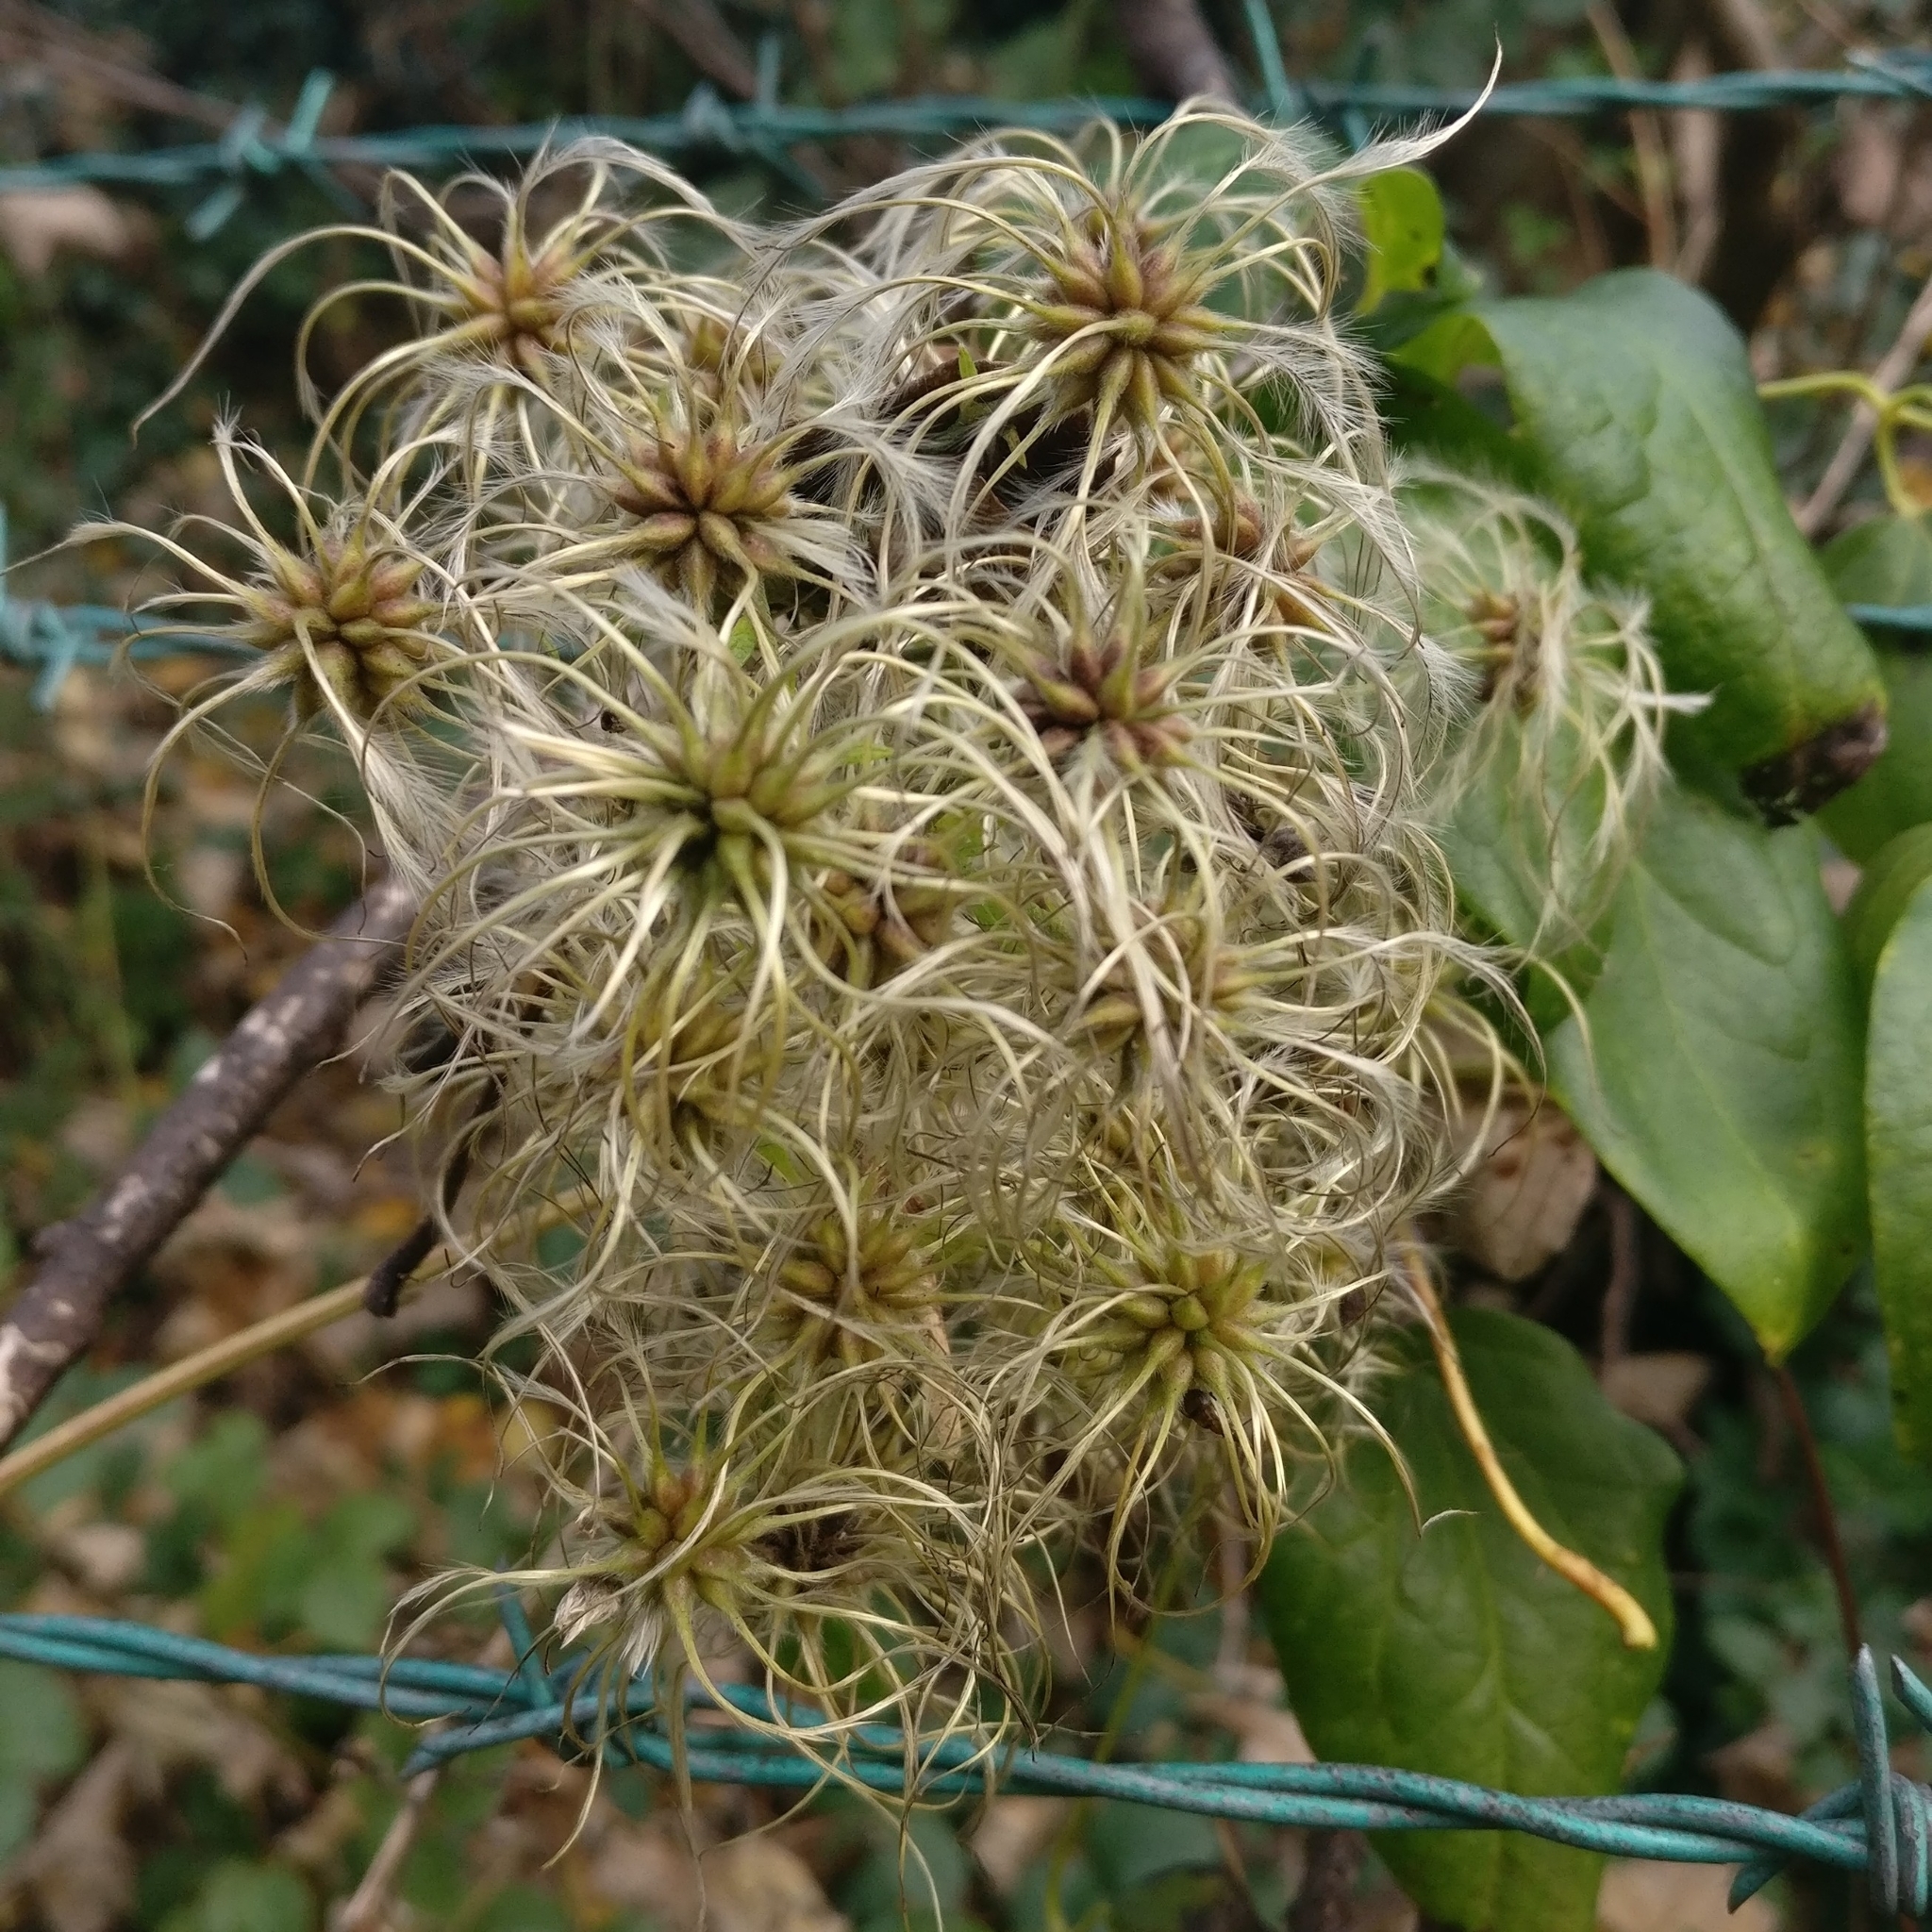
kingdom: Plantae
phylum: Tracheophyta
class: Magnoliopsida
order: Ranunculales
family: Ranunculaceae
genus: Clematis
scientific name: Clematis vitalba
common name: Evergreen clematis
